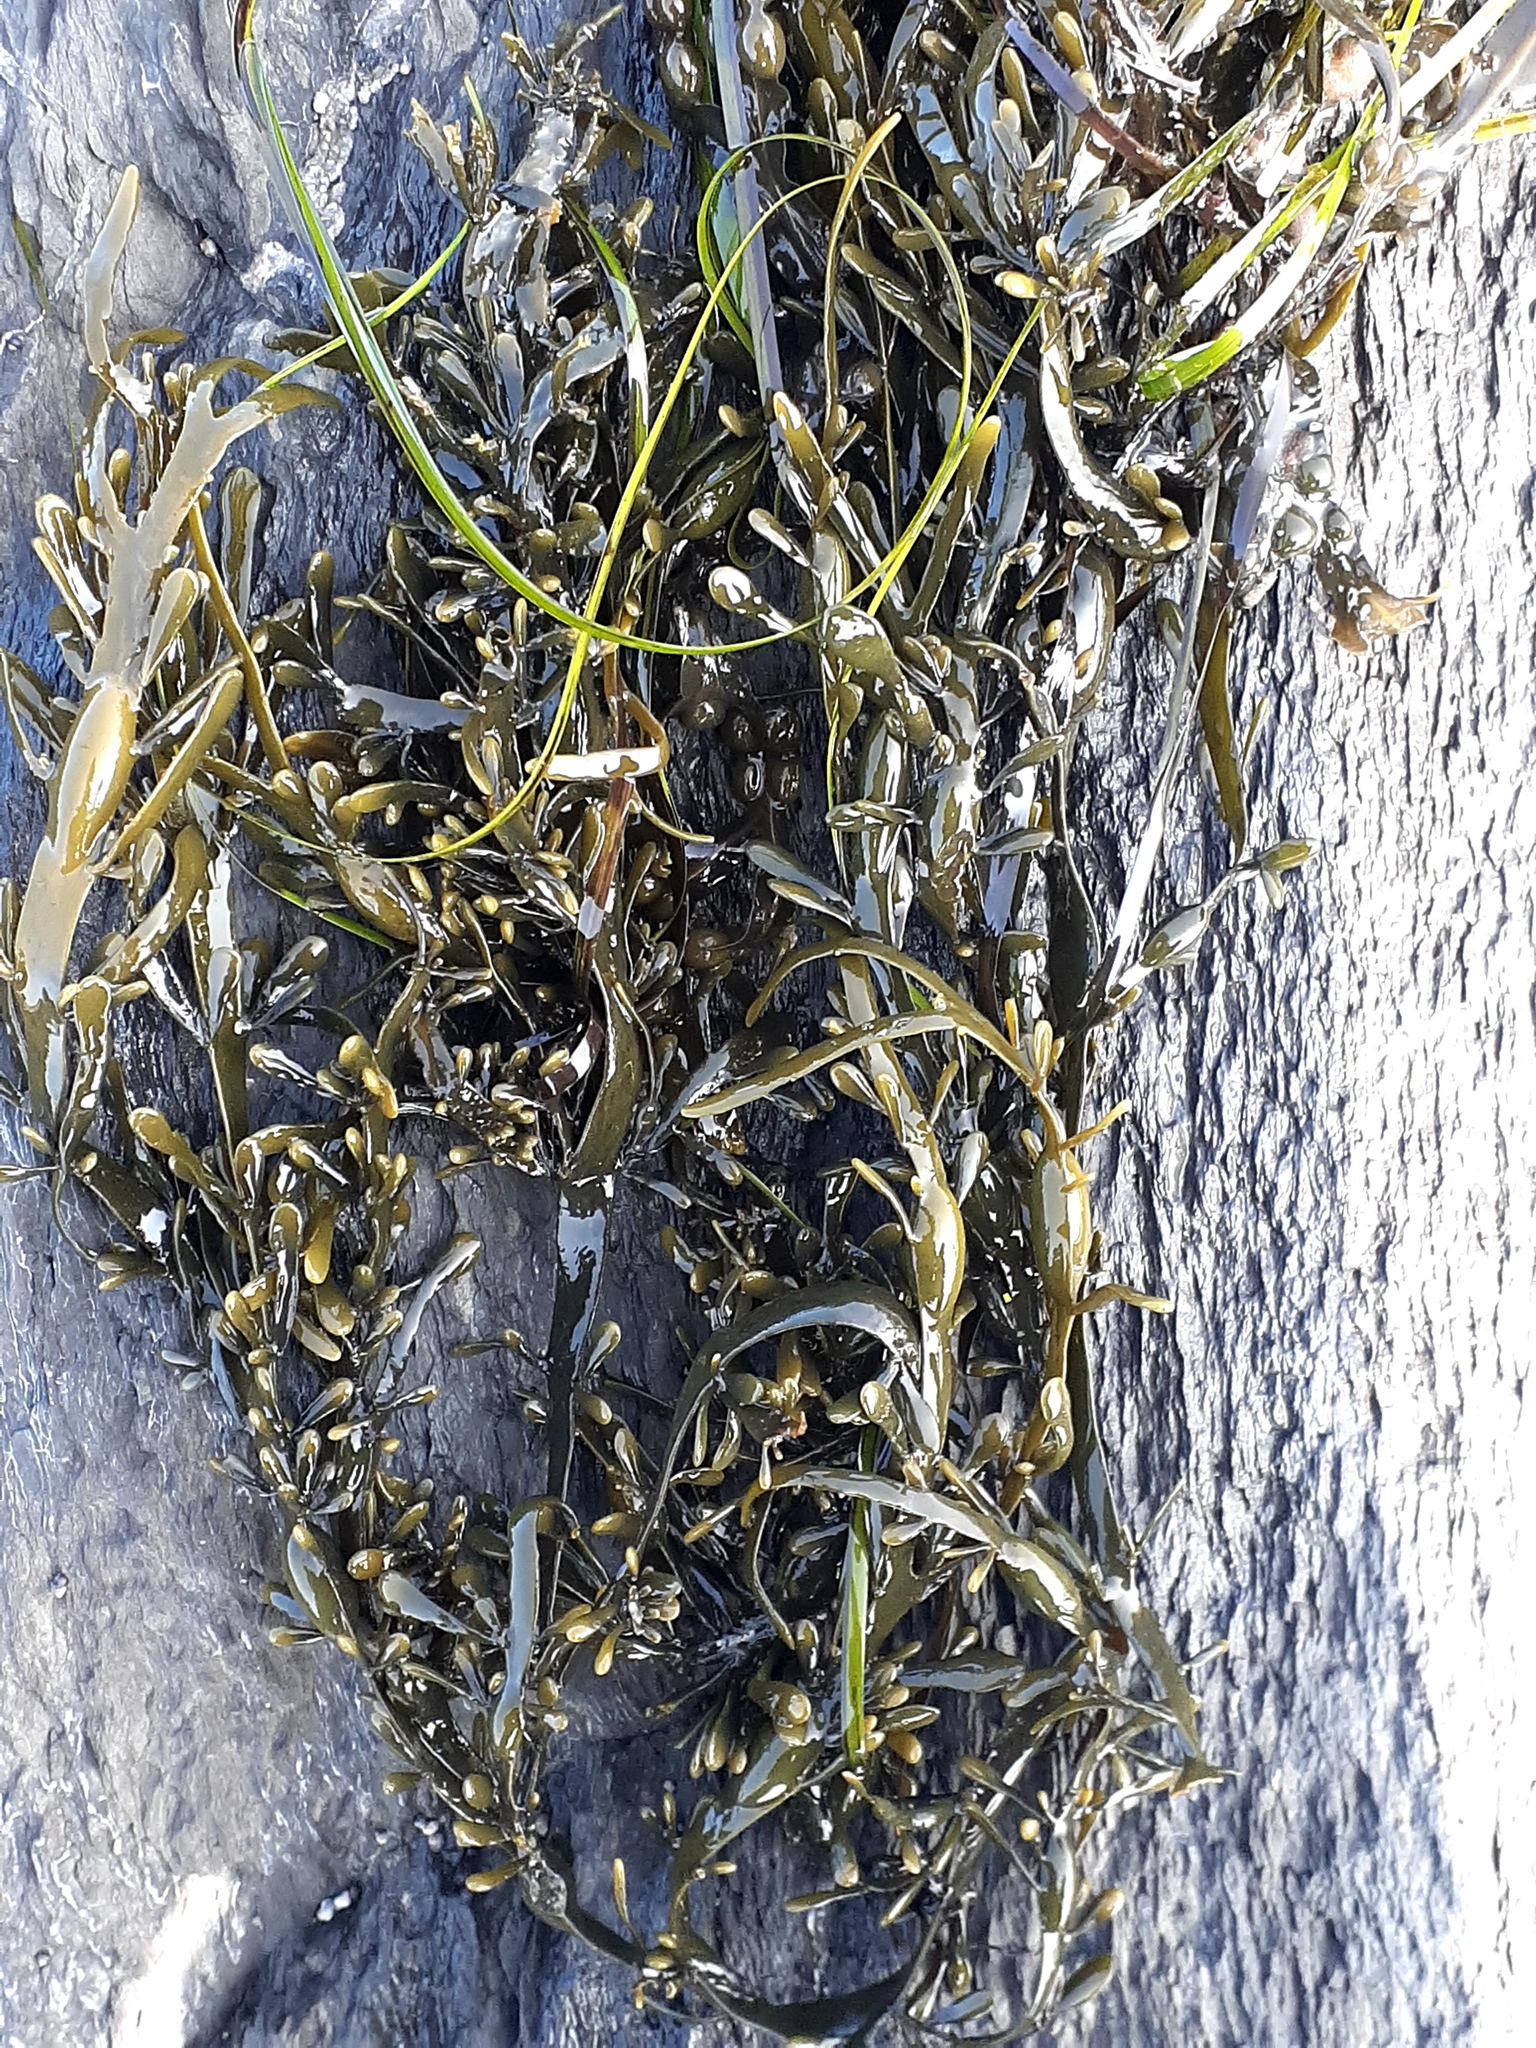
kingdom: Chromista
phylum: Ochrophyta
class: Phaeophyceae
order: Fucales
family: Fucaceae
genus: Ascophyllum
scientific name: Ascophyllum nodosum
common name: Knotted wrack
